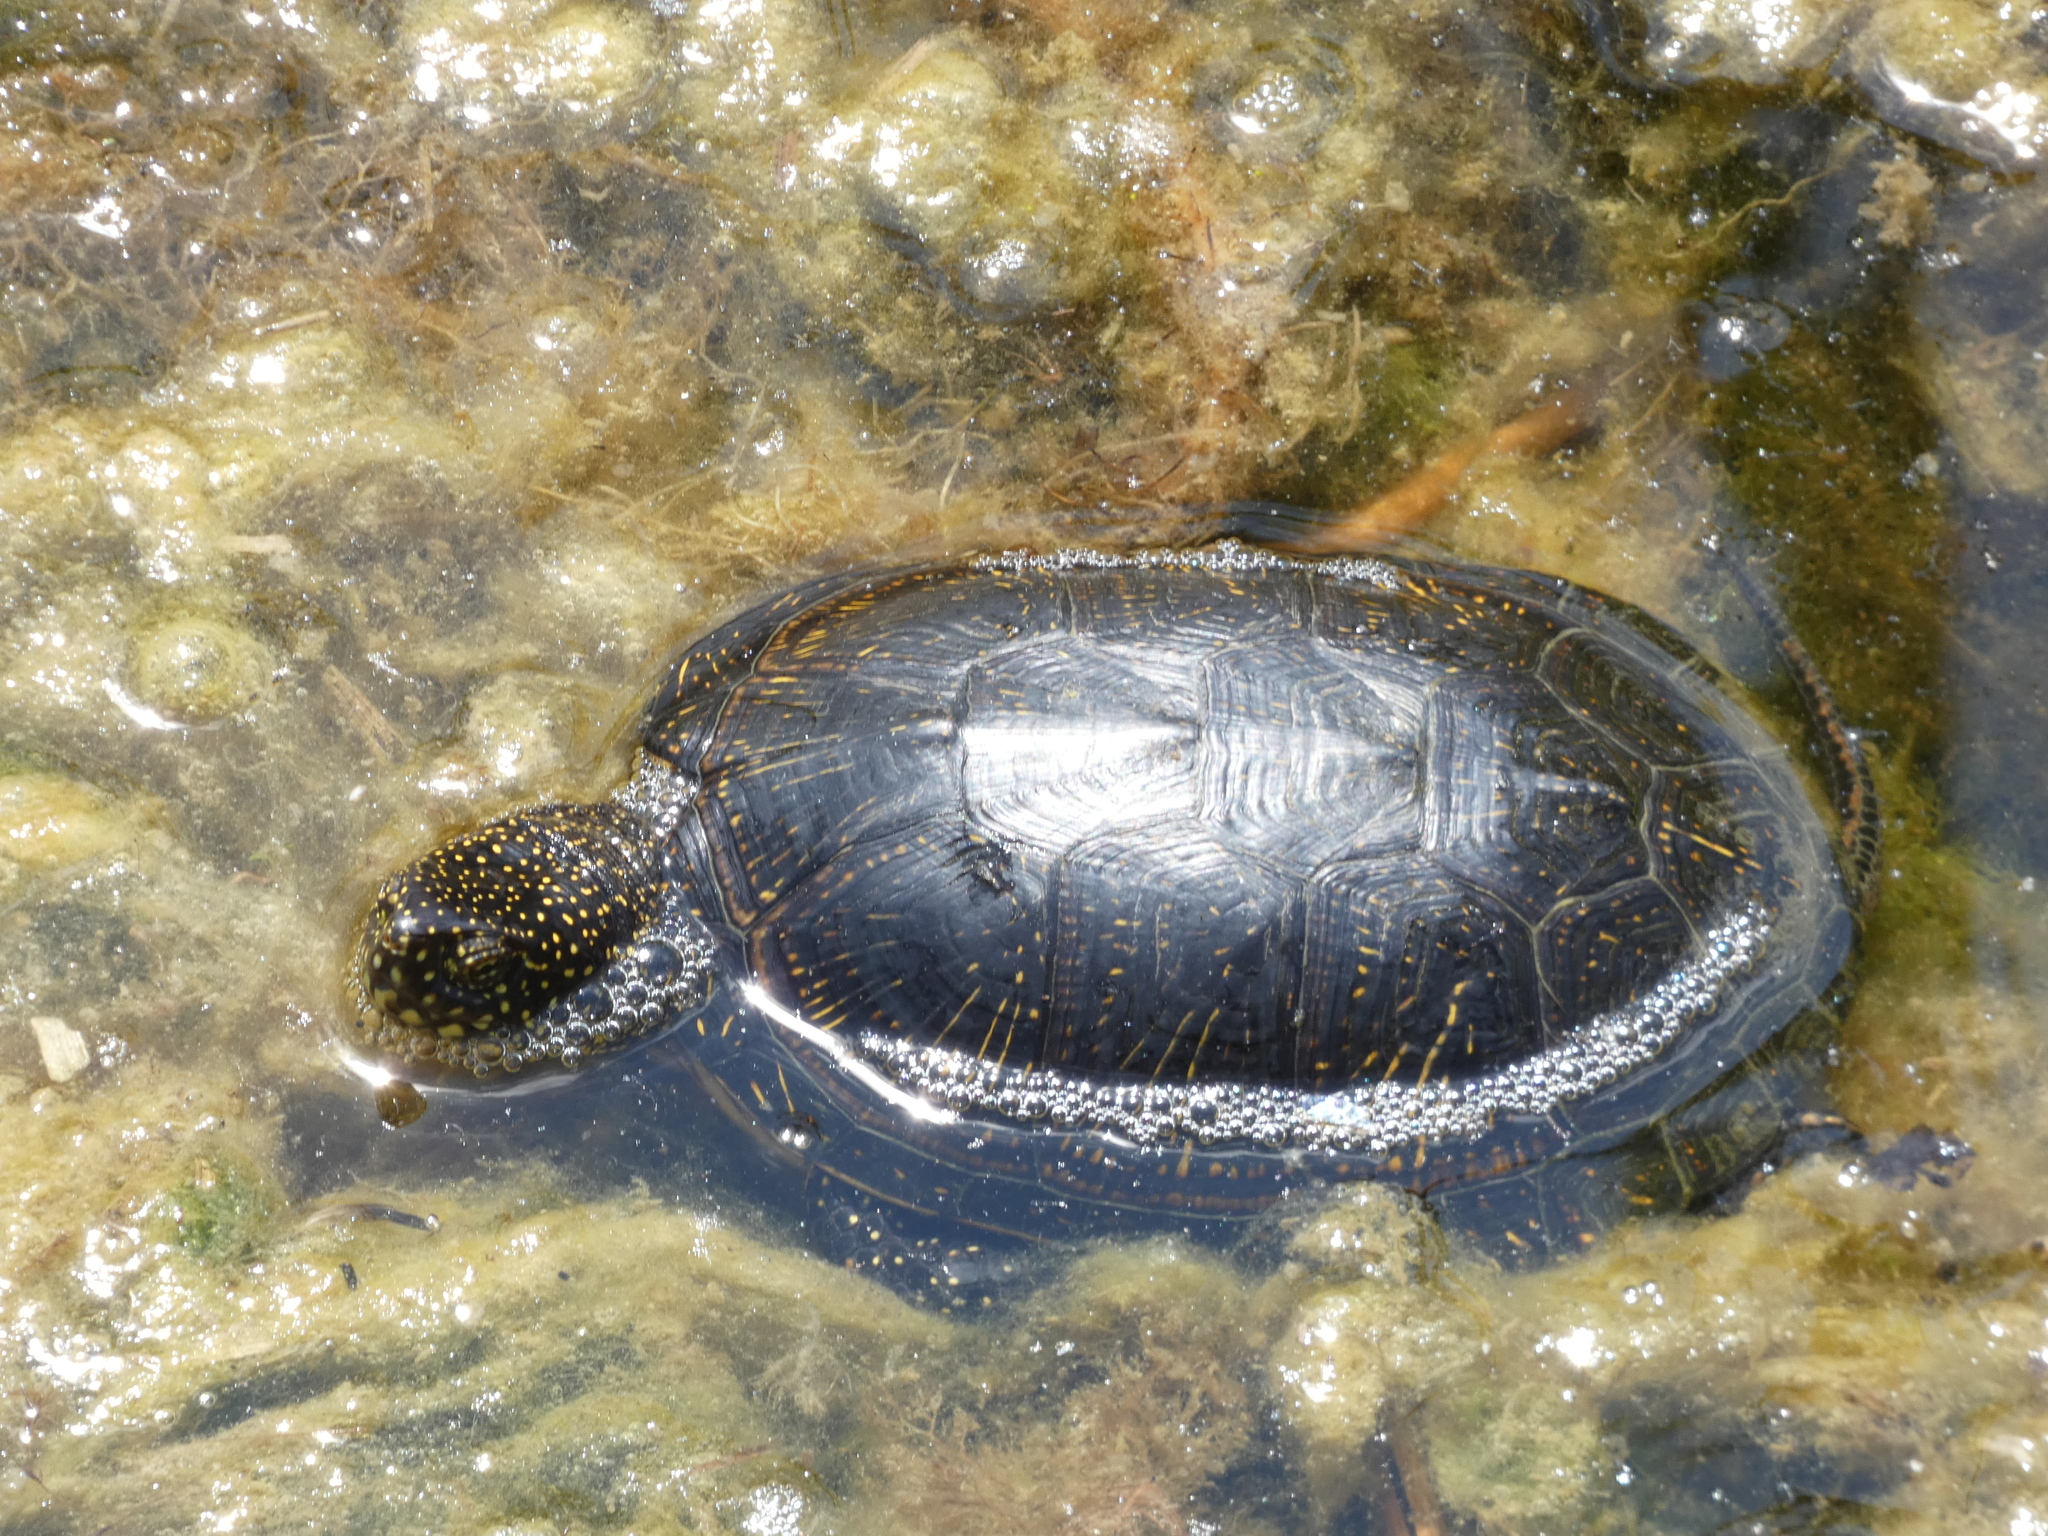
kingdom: Animalia
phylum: Chordata
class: Testudines
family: Emydidae
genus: Emys
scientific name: Emys orbicularis
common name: European pond turtle
